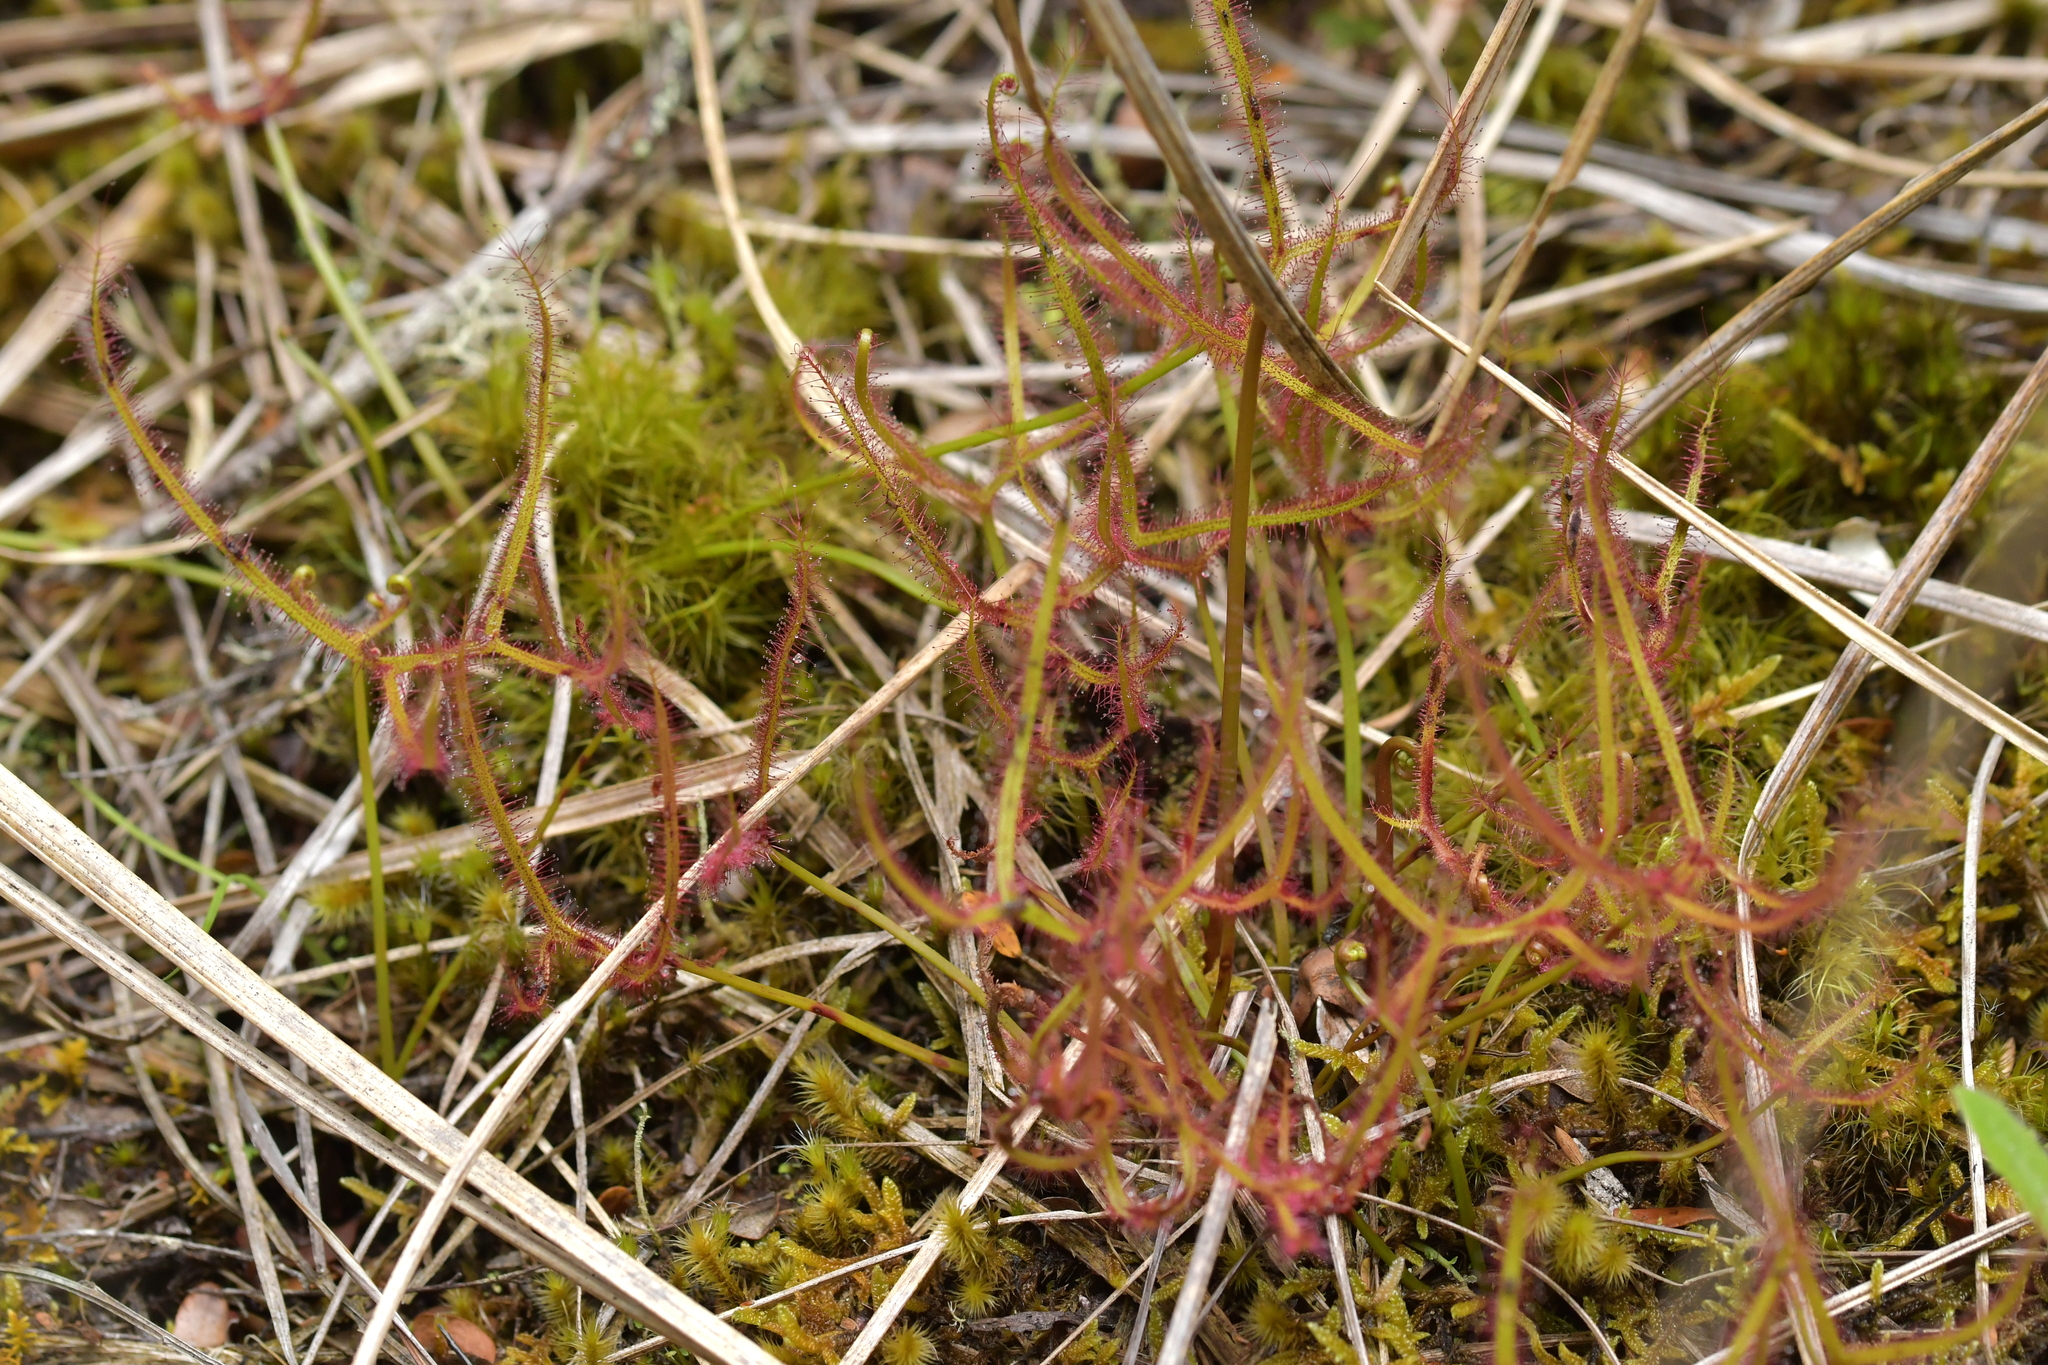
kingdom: Plantae
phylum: Tracheophyta
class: Magnoliopsida
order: Caryophyllales
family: Droseraceae
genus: Drosera
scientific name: Drosera binata
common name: Forked sundew
